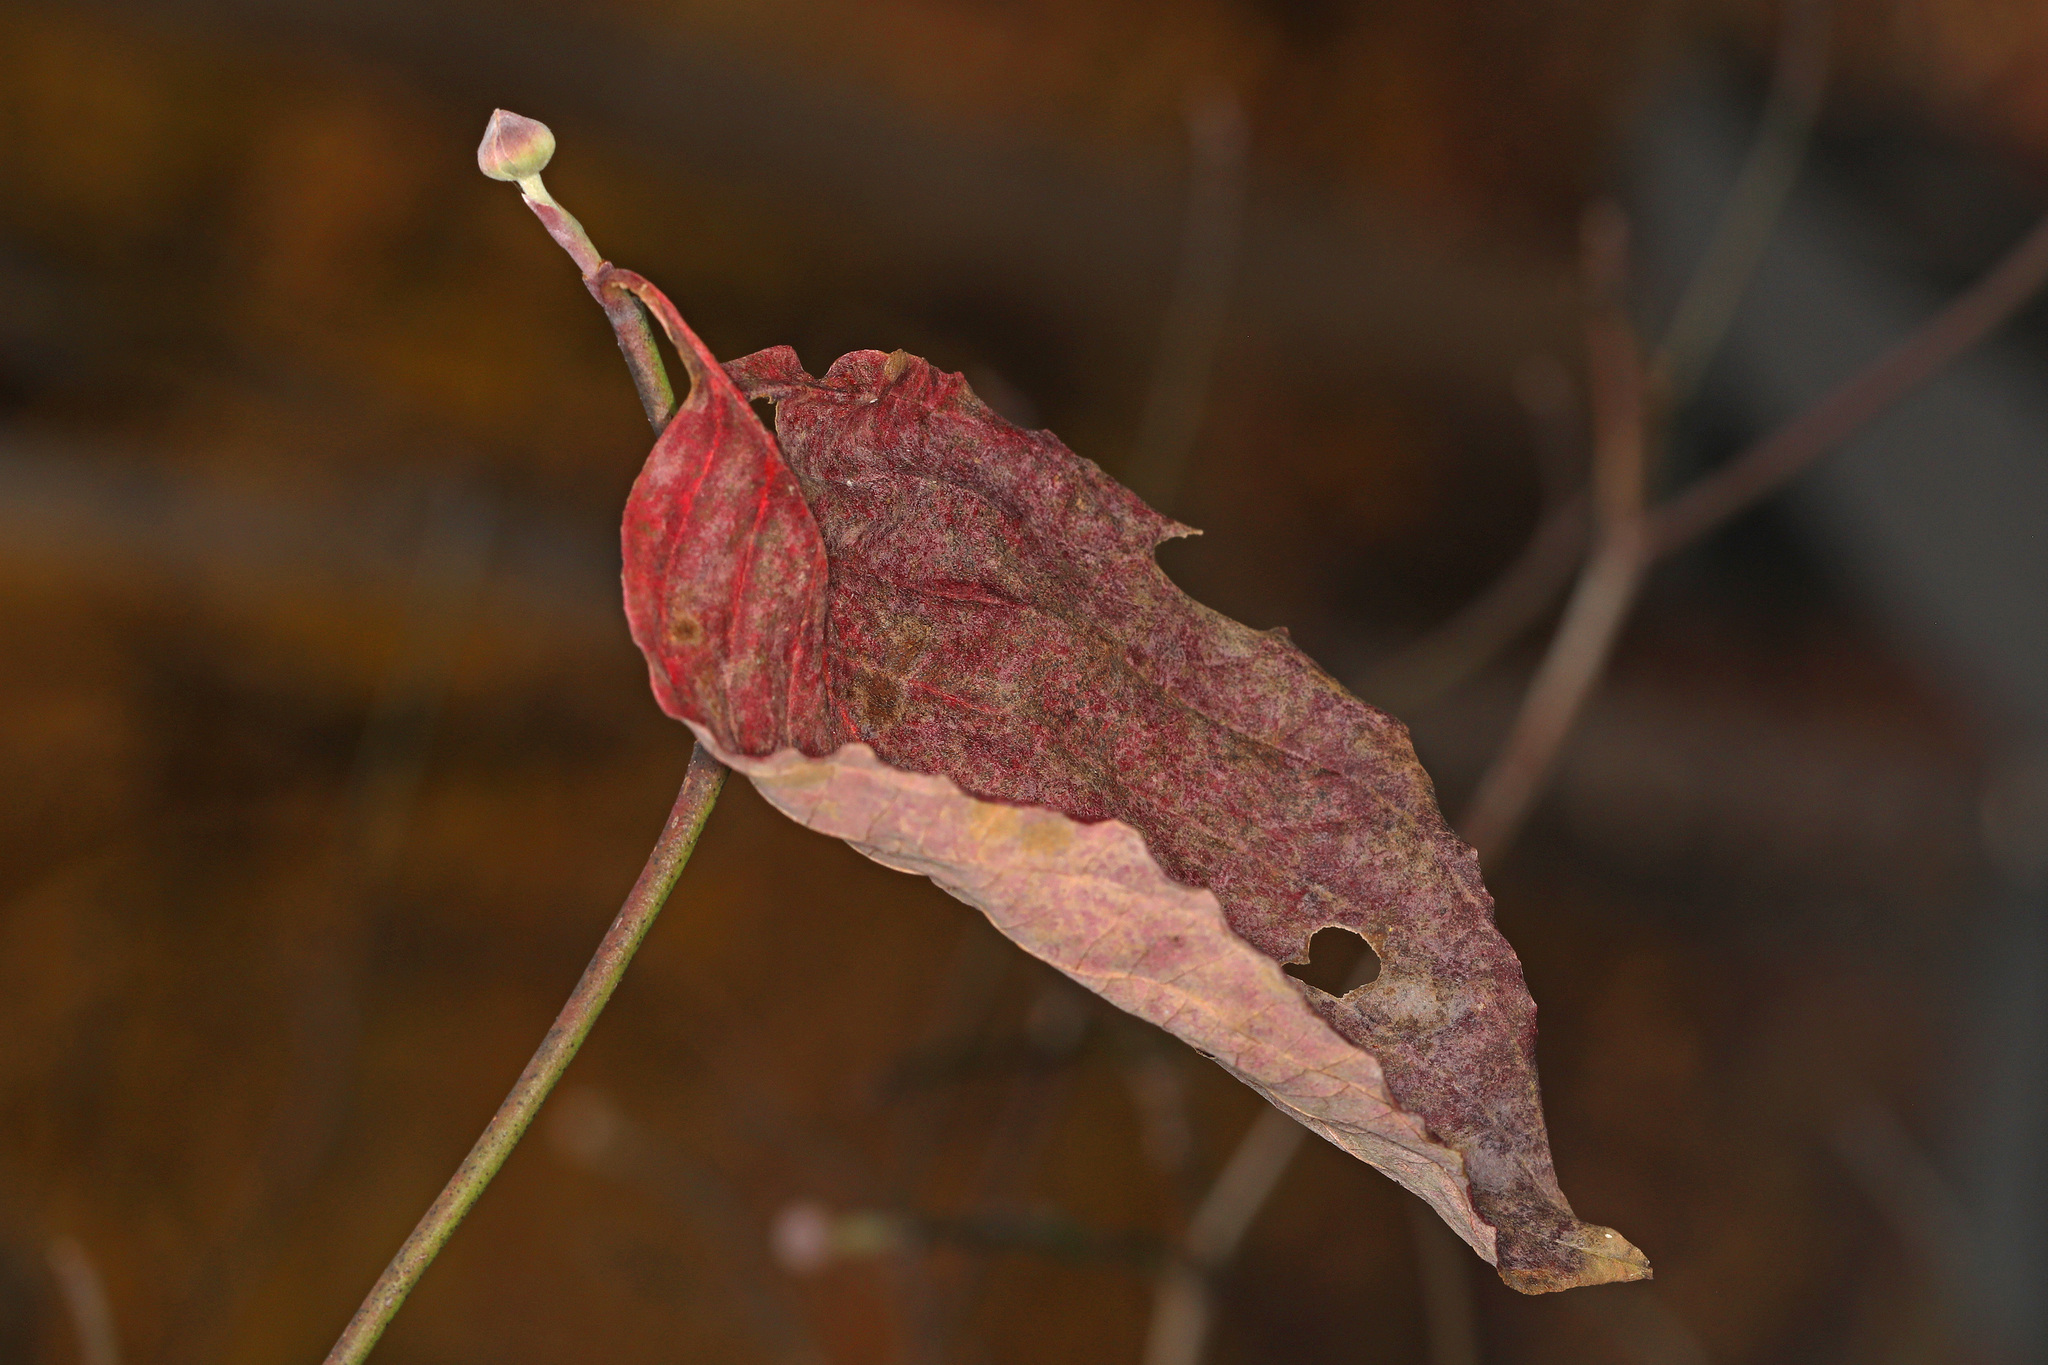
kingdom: Plantae
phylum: Tracheophyta
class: Magnoliopsida
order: Cornales
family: Cornaceae
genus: Cornus
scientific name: Cornus florida
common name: Flowering dogwood
